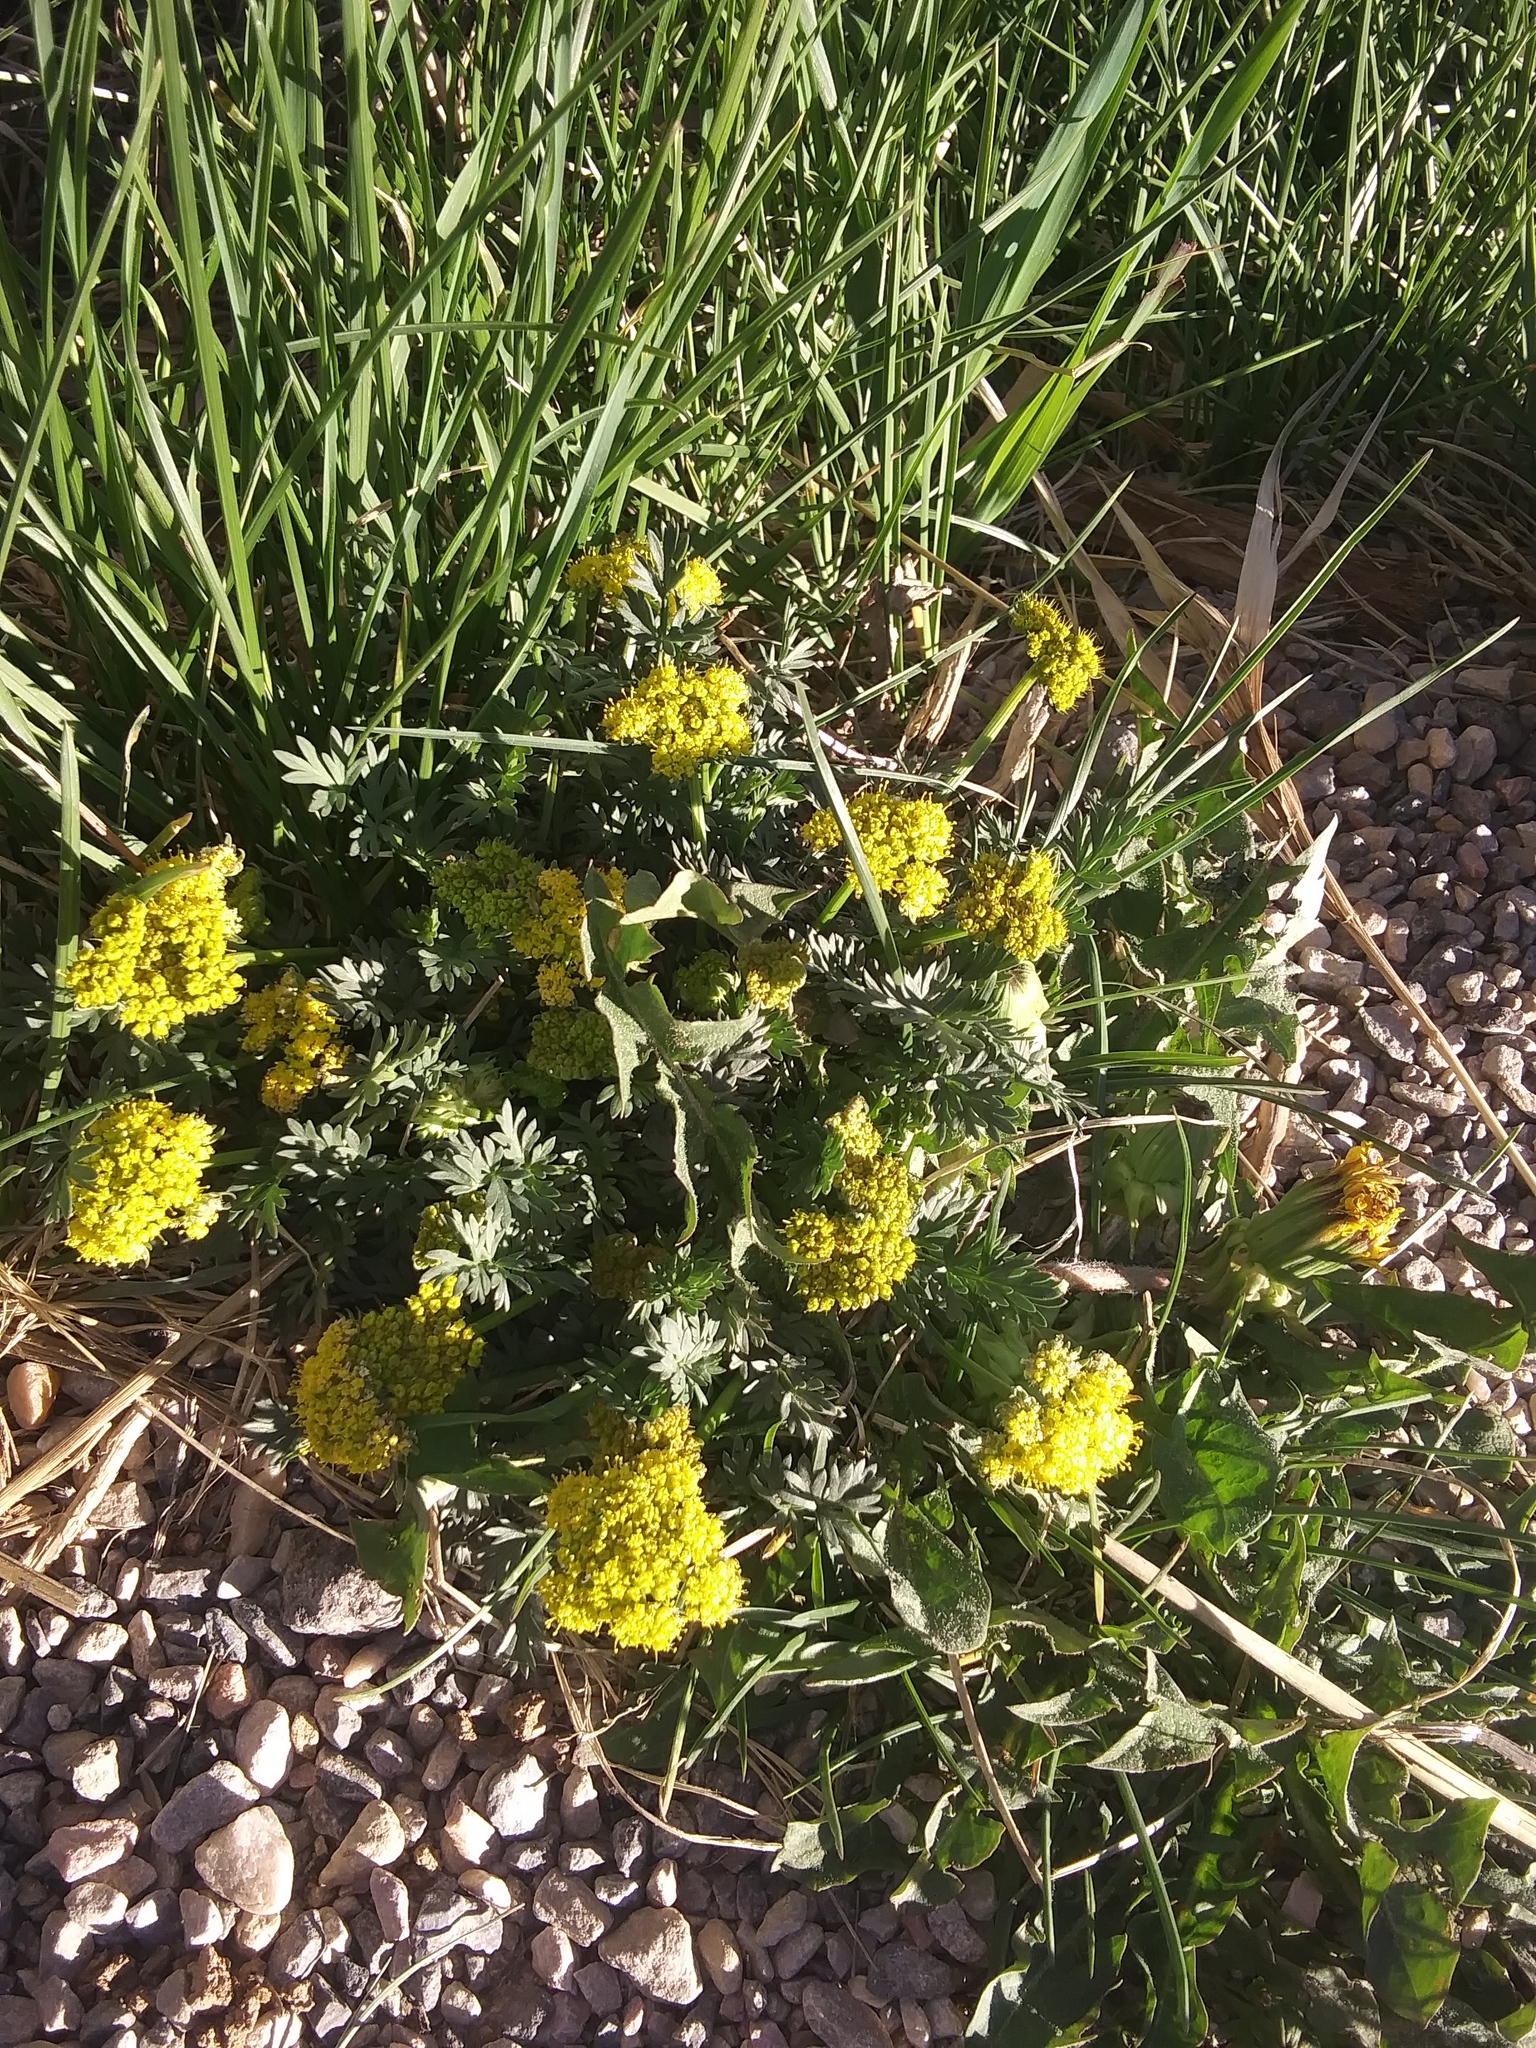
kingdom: Plantae
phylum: Tracheophyta
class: Magnoliopsida
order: Apiales
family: Apiaceae
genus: Lomatium
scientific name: Lomatium minimum
